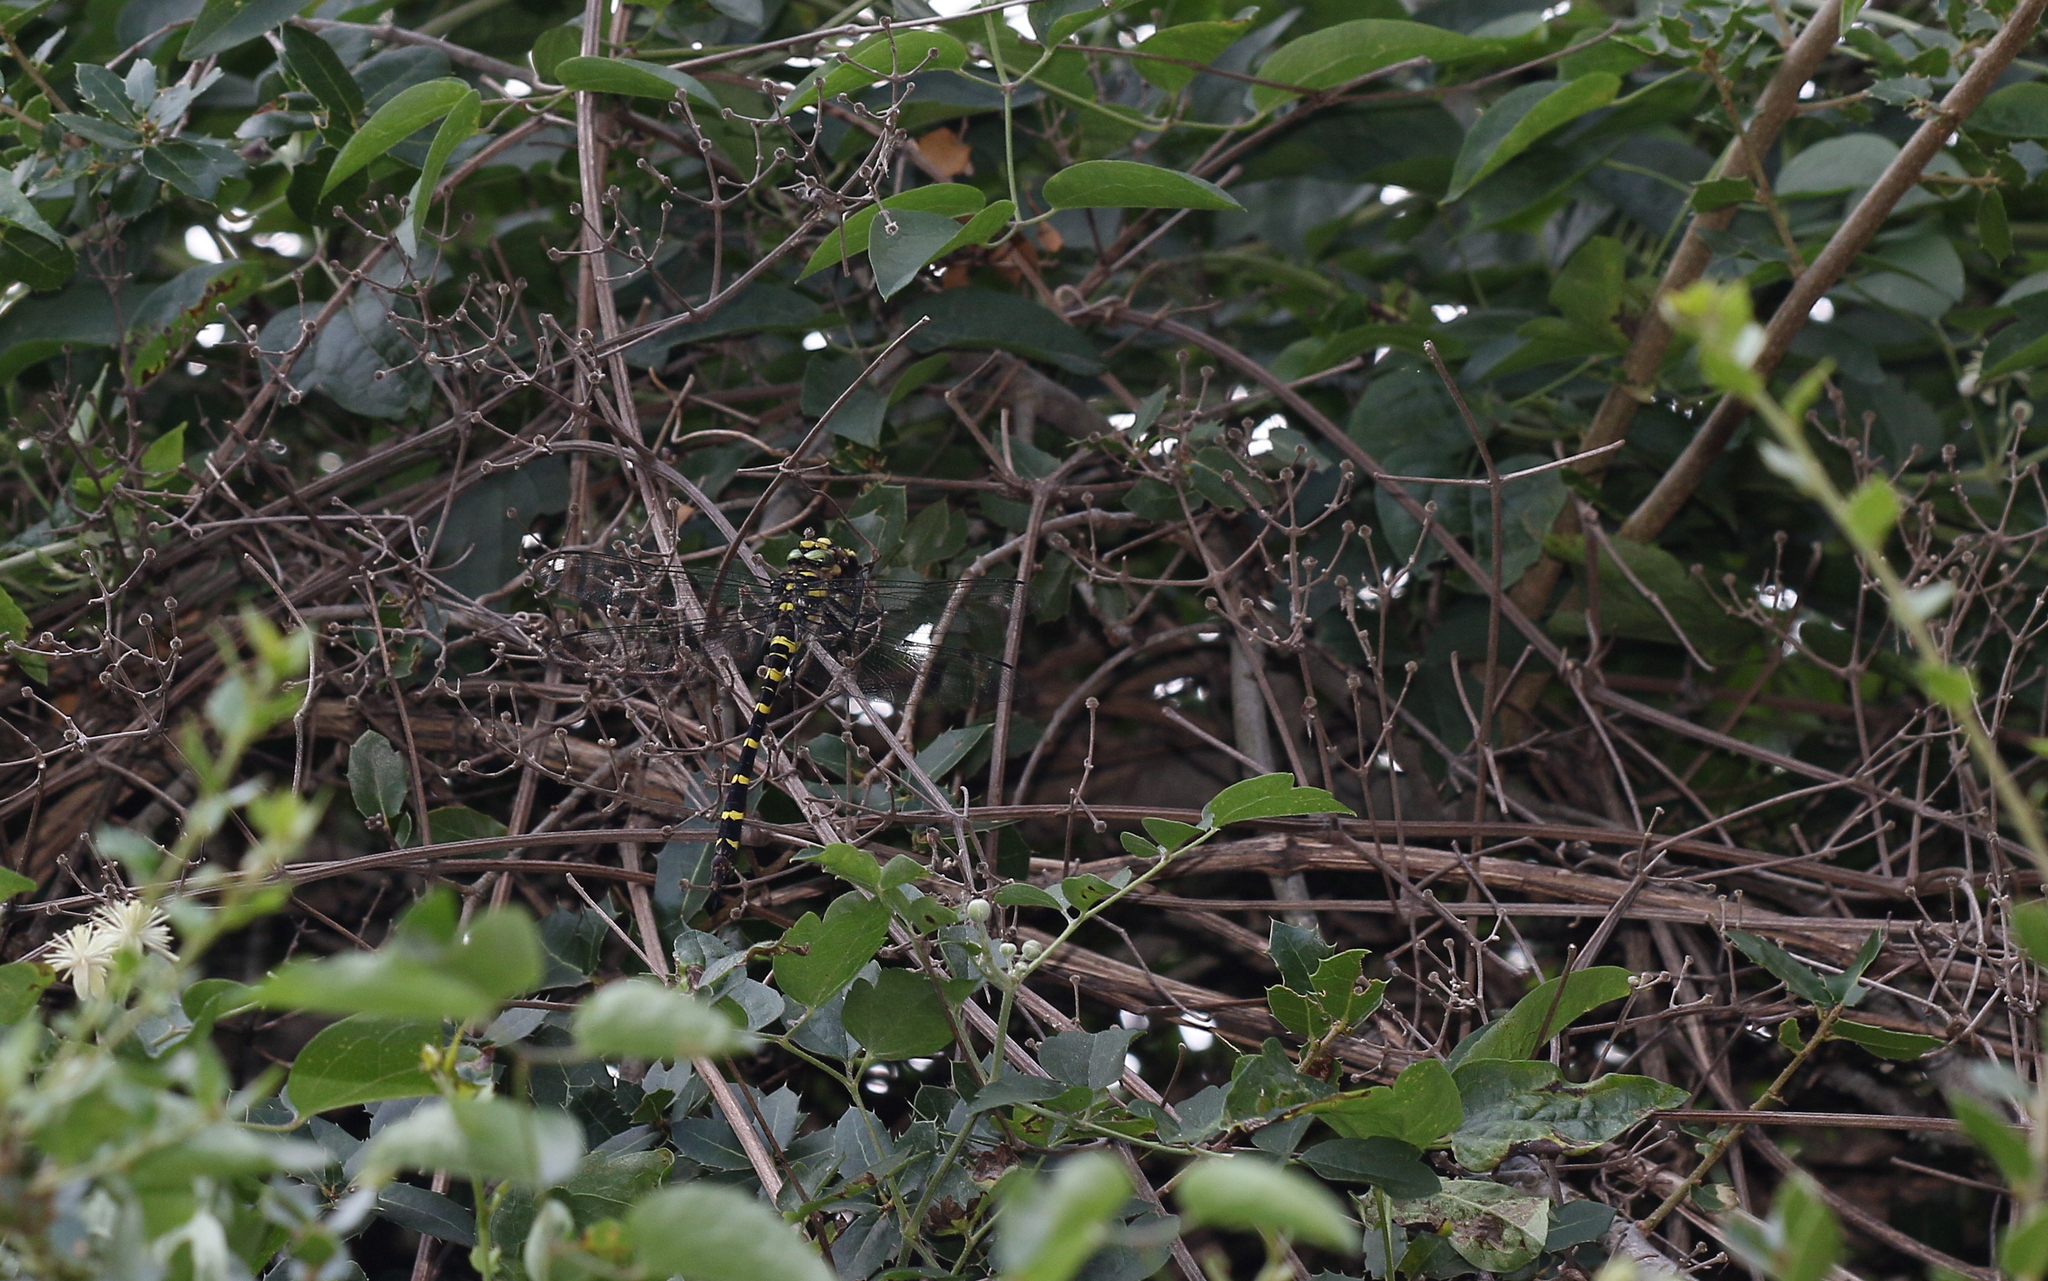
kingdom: Animalia
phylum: Arthropoda
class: Insecta
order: Odonata
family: Cordulegastridae
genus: Cordulegaster
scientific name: Cordulegaster helladica
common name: Greek goldenring
